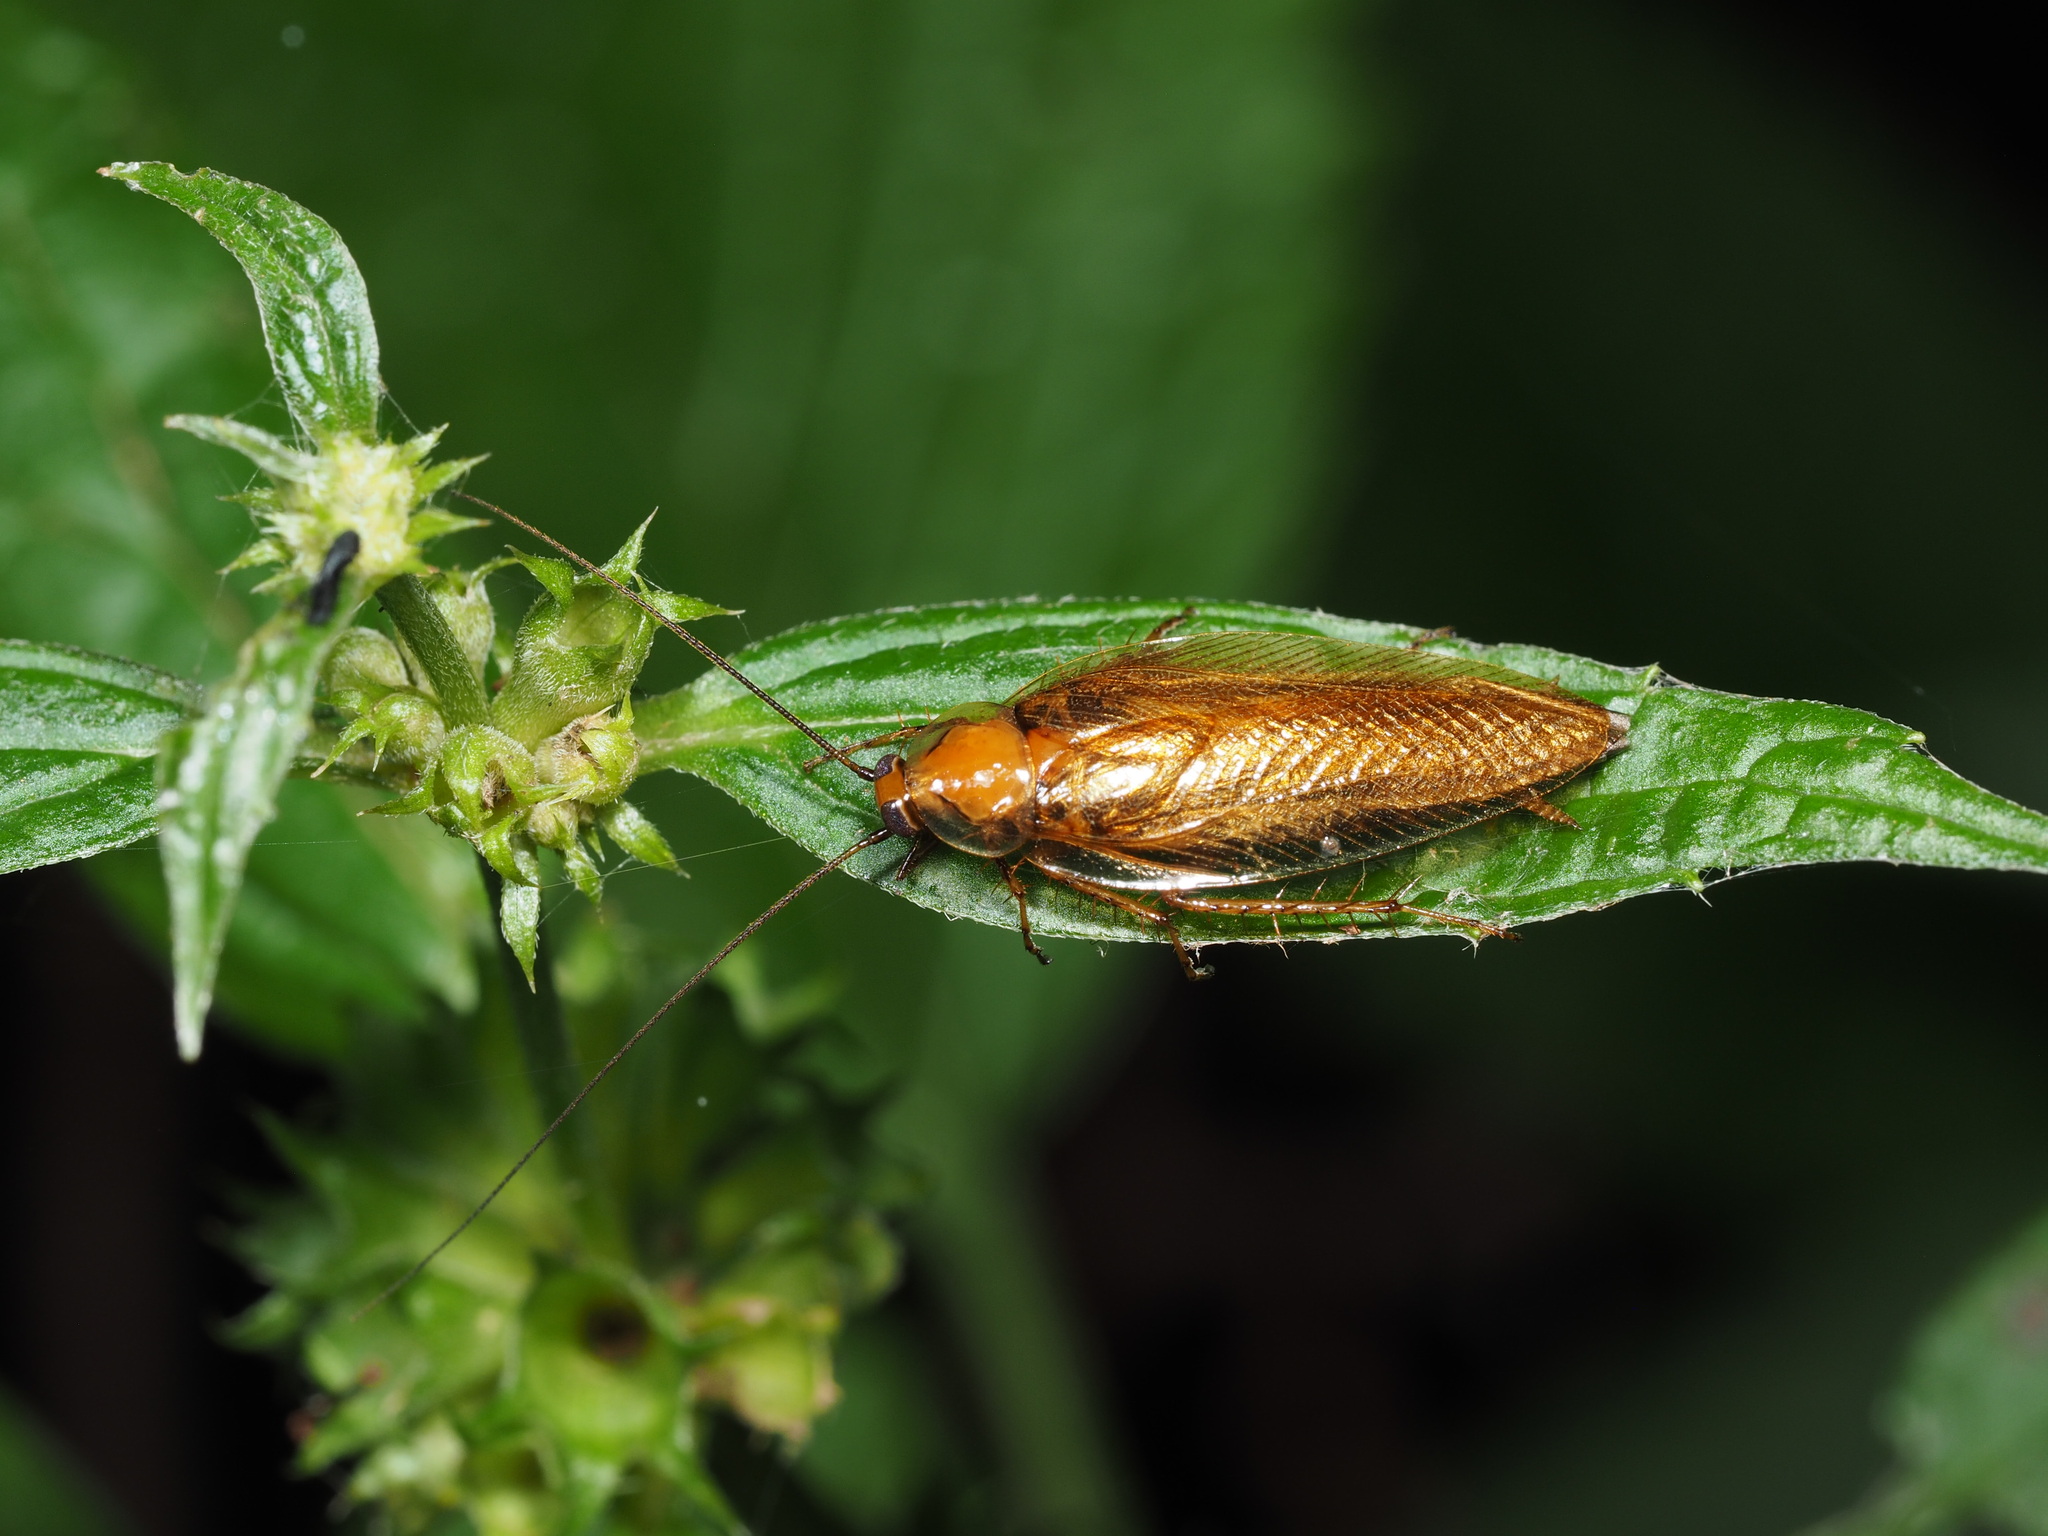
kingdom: Animalia
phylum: Arthropoda
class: Insecta
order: Blattodea
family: Ectobiidae
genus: Ectobius
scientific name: Ectobius vittiventris
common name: Garden cockroach
